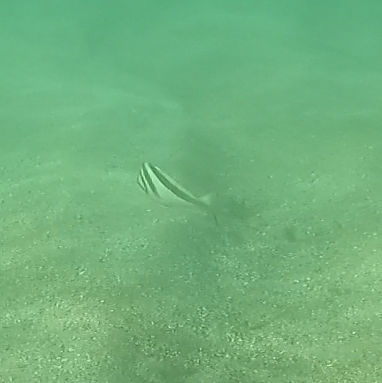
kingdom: Animalia
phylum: Chordata
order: Perciformes
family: Cheilodactylidae
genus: Cheilodactylus
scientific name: Cheilodactylus vestitus
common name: Crested morwong
